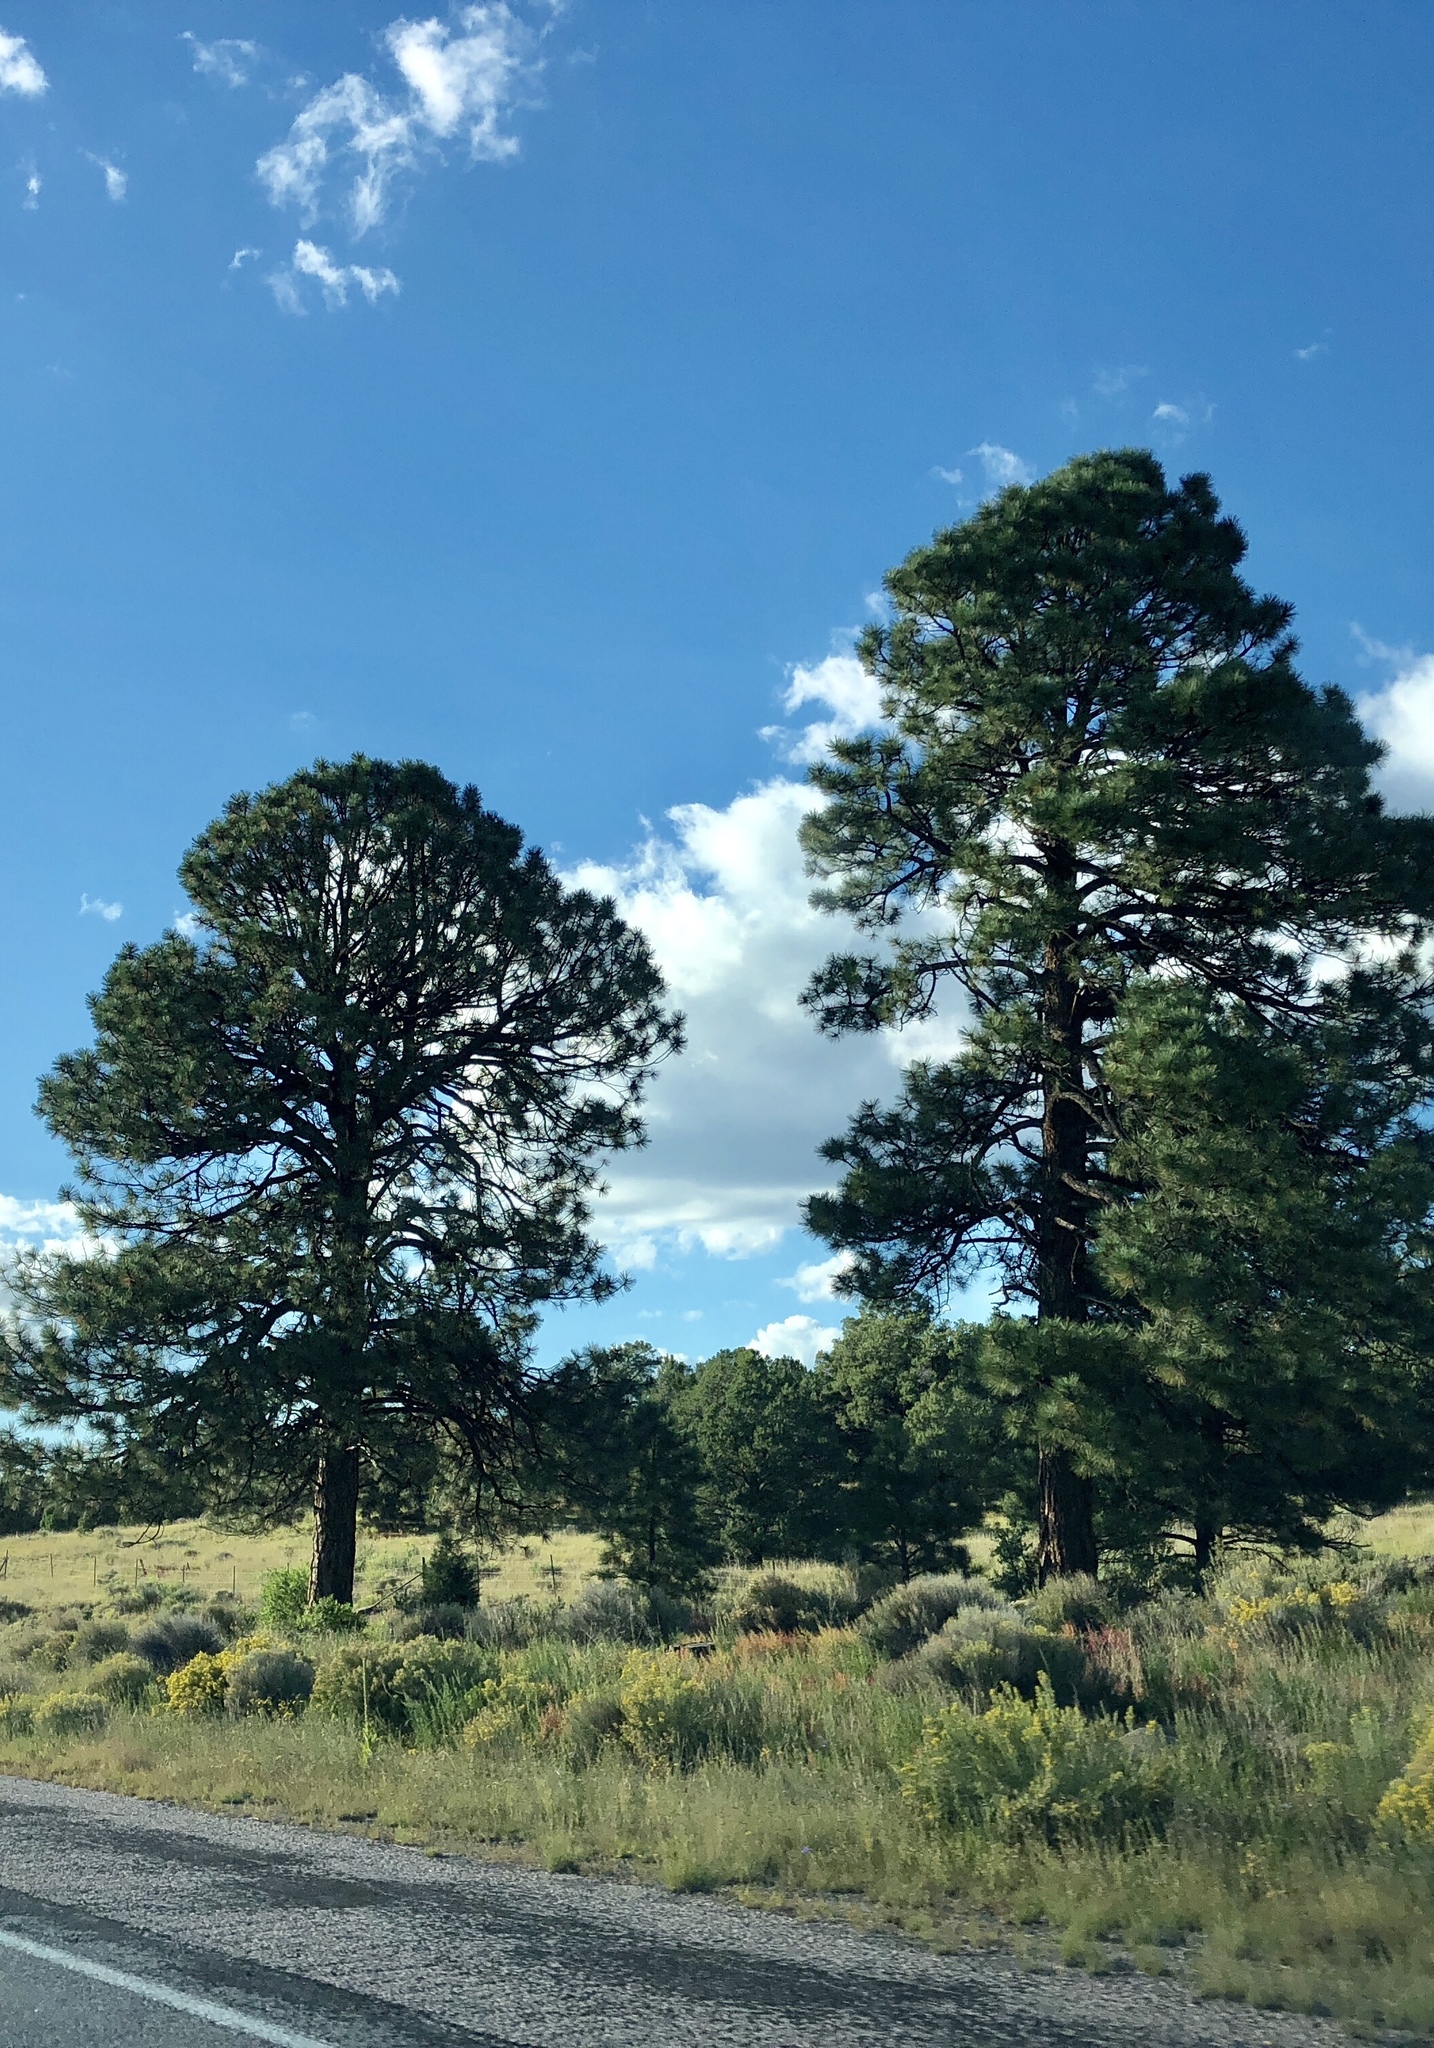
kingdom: Plantae
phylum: Tracheophyta
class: Pinopsida
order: Pinales
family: Pinaceae
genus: Pinus
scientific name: Pinus ponderosa
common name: Western yellow-pine
